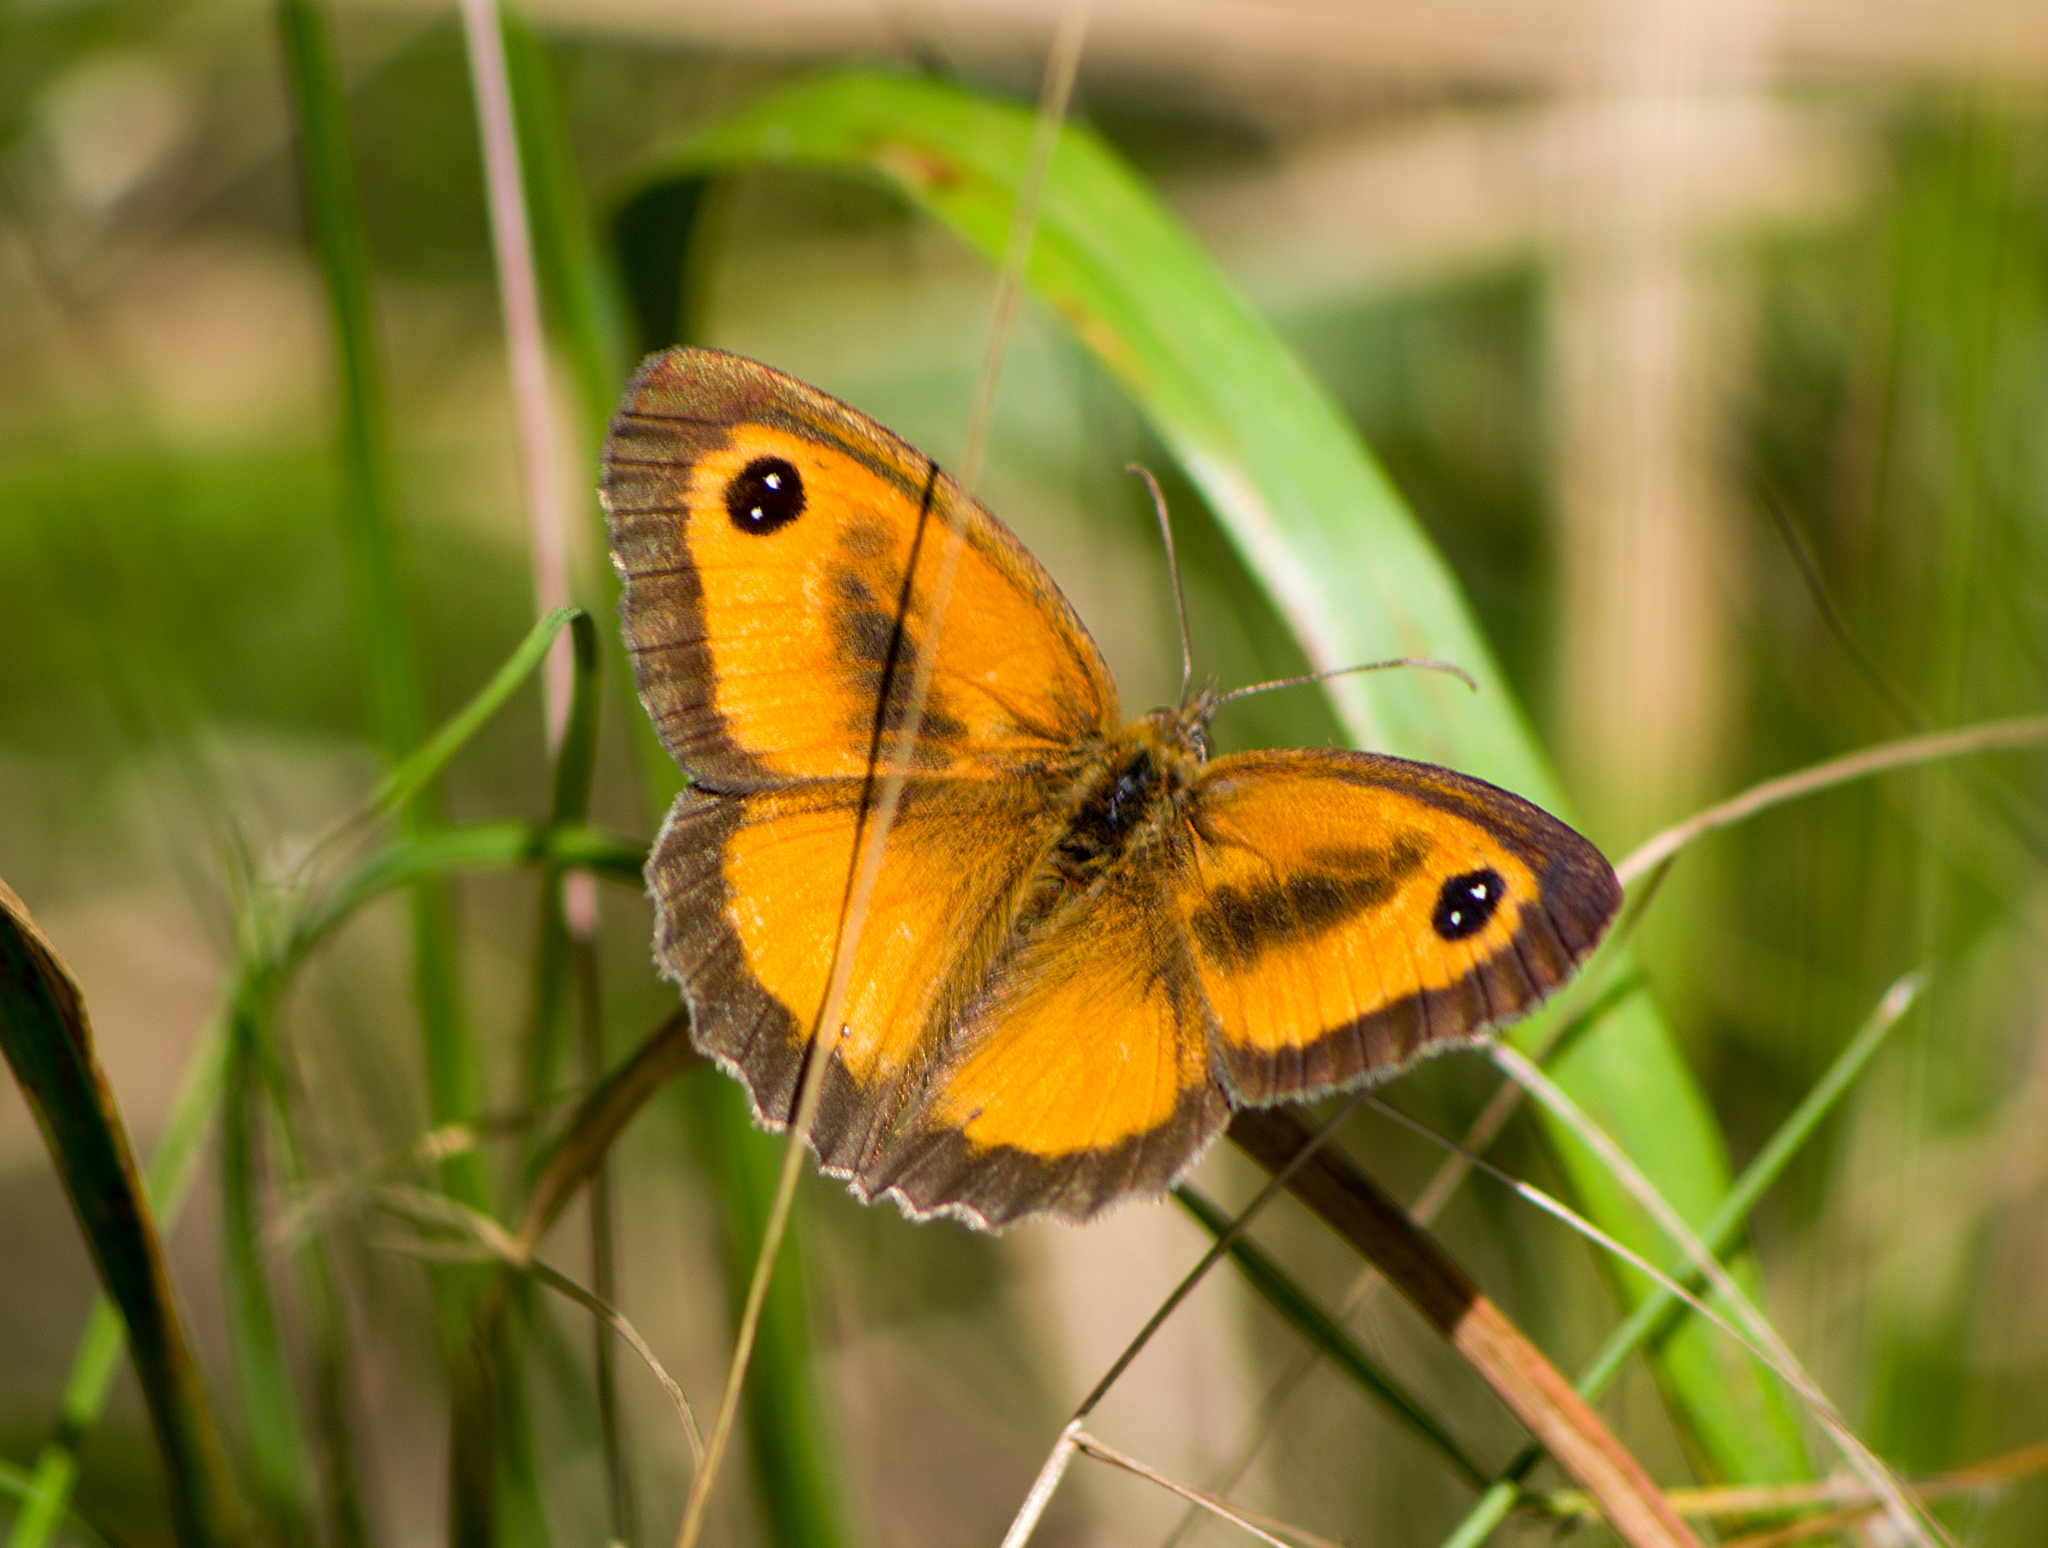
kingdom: Animalia
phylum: Arthropoda
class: Insecta
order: Lepidoptera
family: Nymphalidae
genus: Pyronia
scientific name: Pyronia tithonus
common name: Gatekeeper
